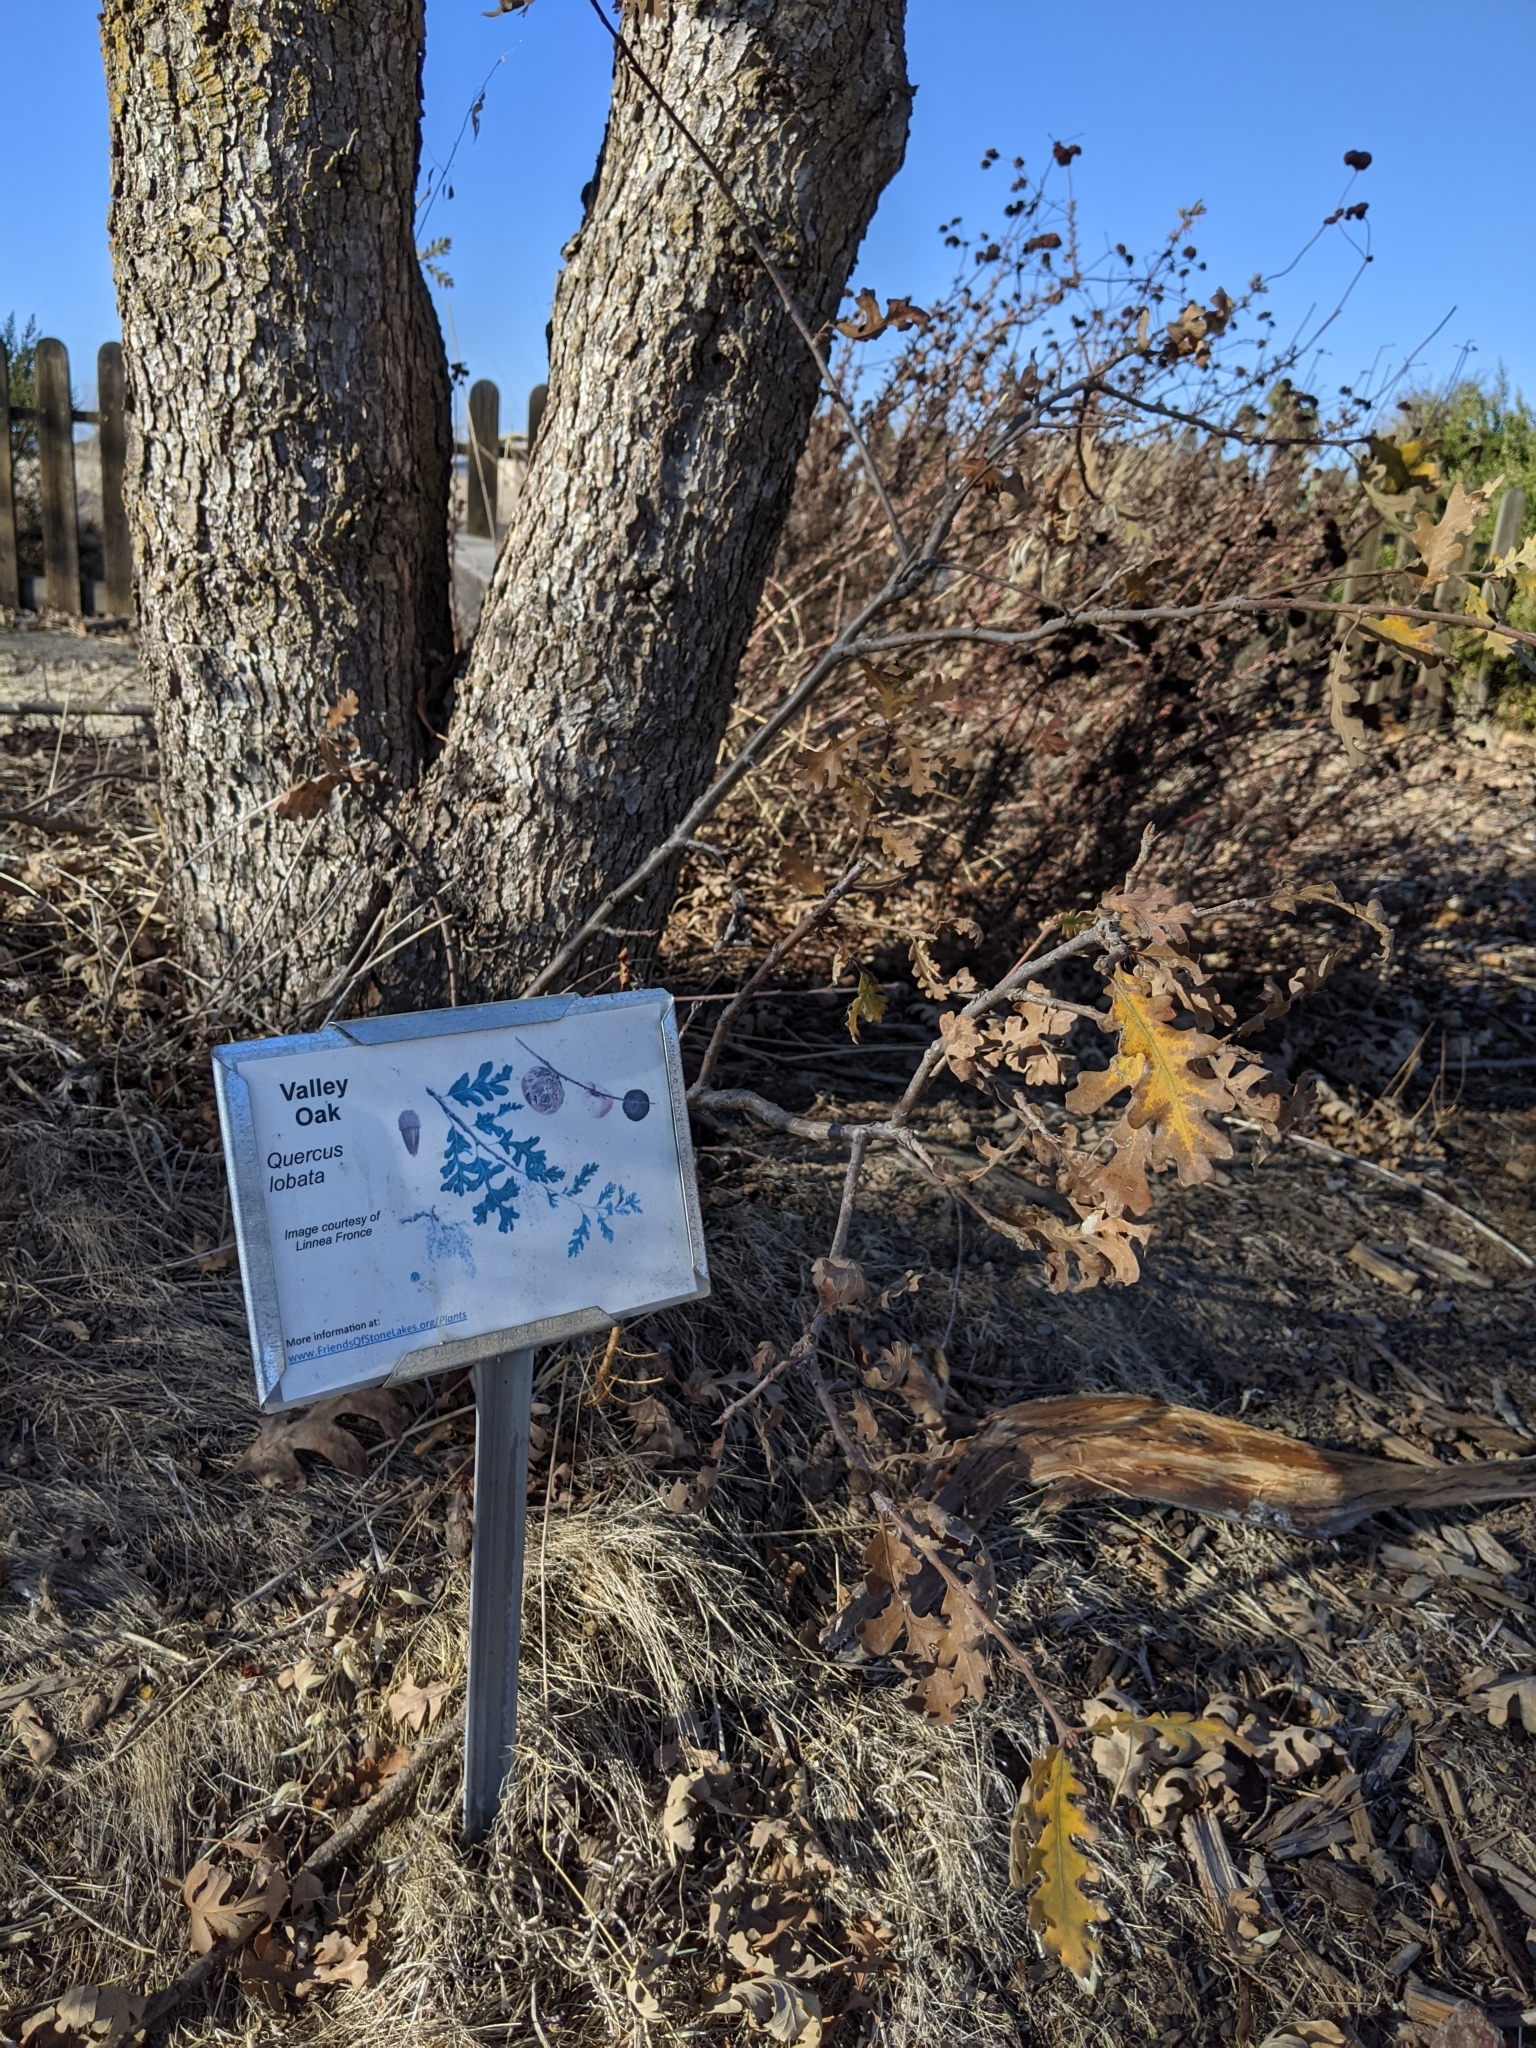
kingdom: Plantae
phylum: Tracheophyta
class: Magnoliopsida
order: Fagales
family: Fagaceae
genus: Quercus
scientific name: Quercus lobata
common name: Valley oak
